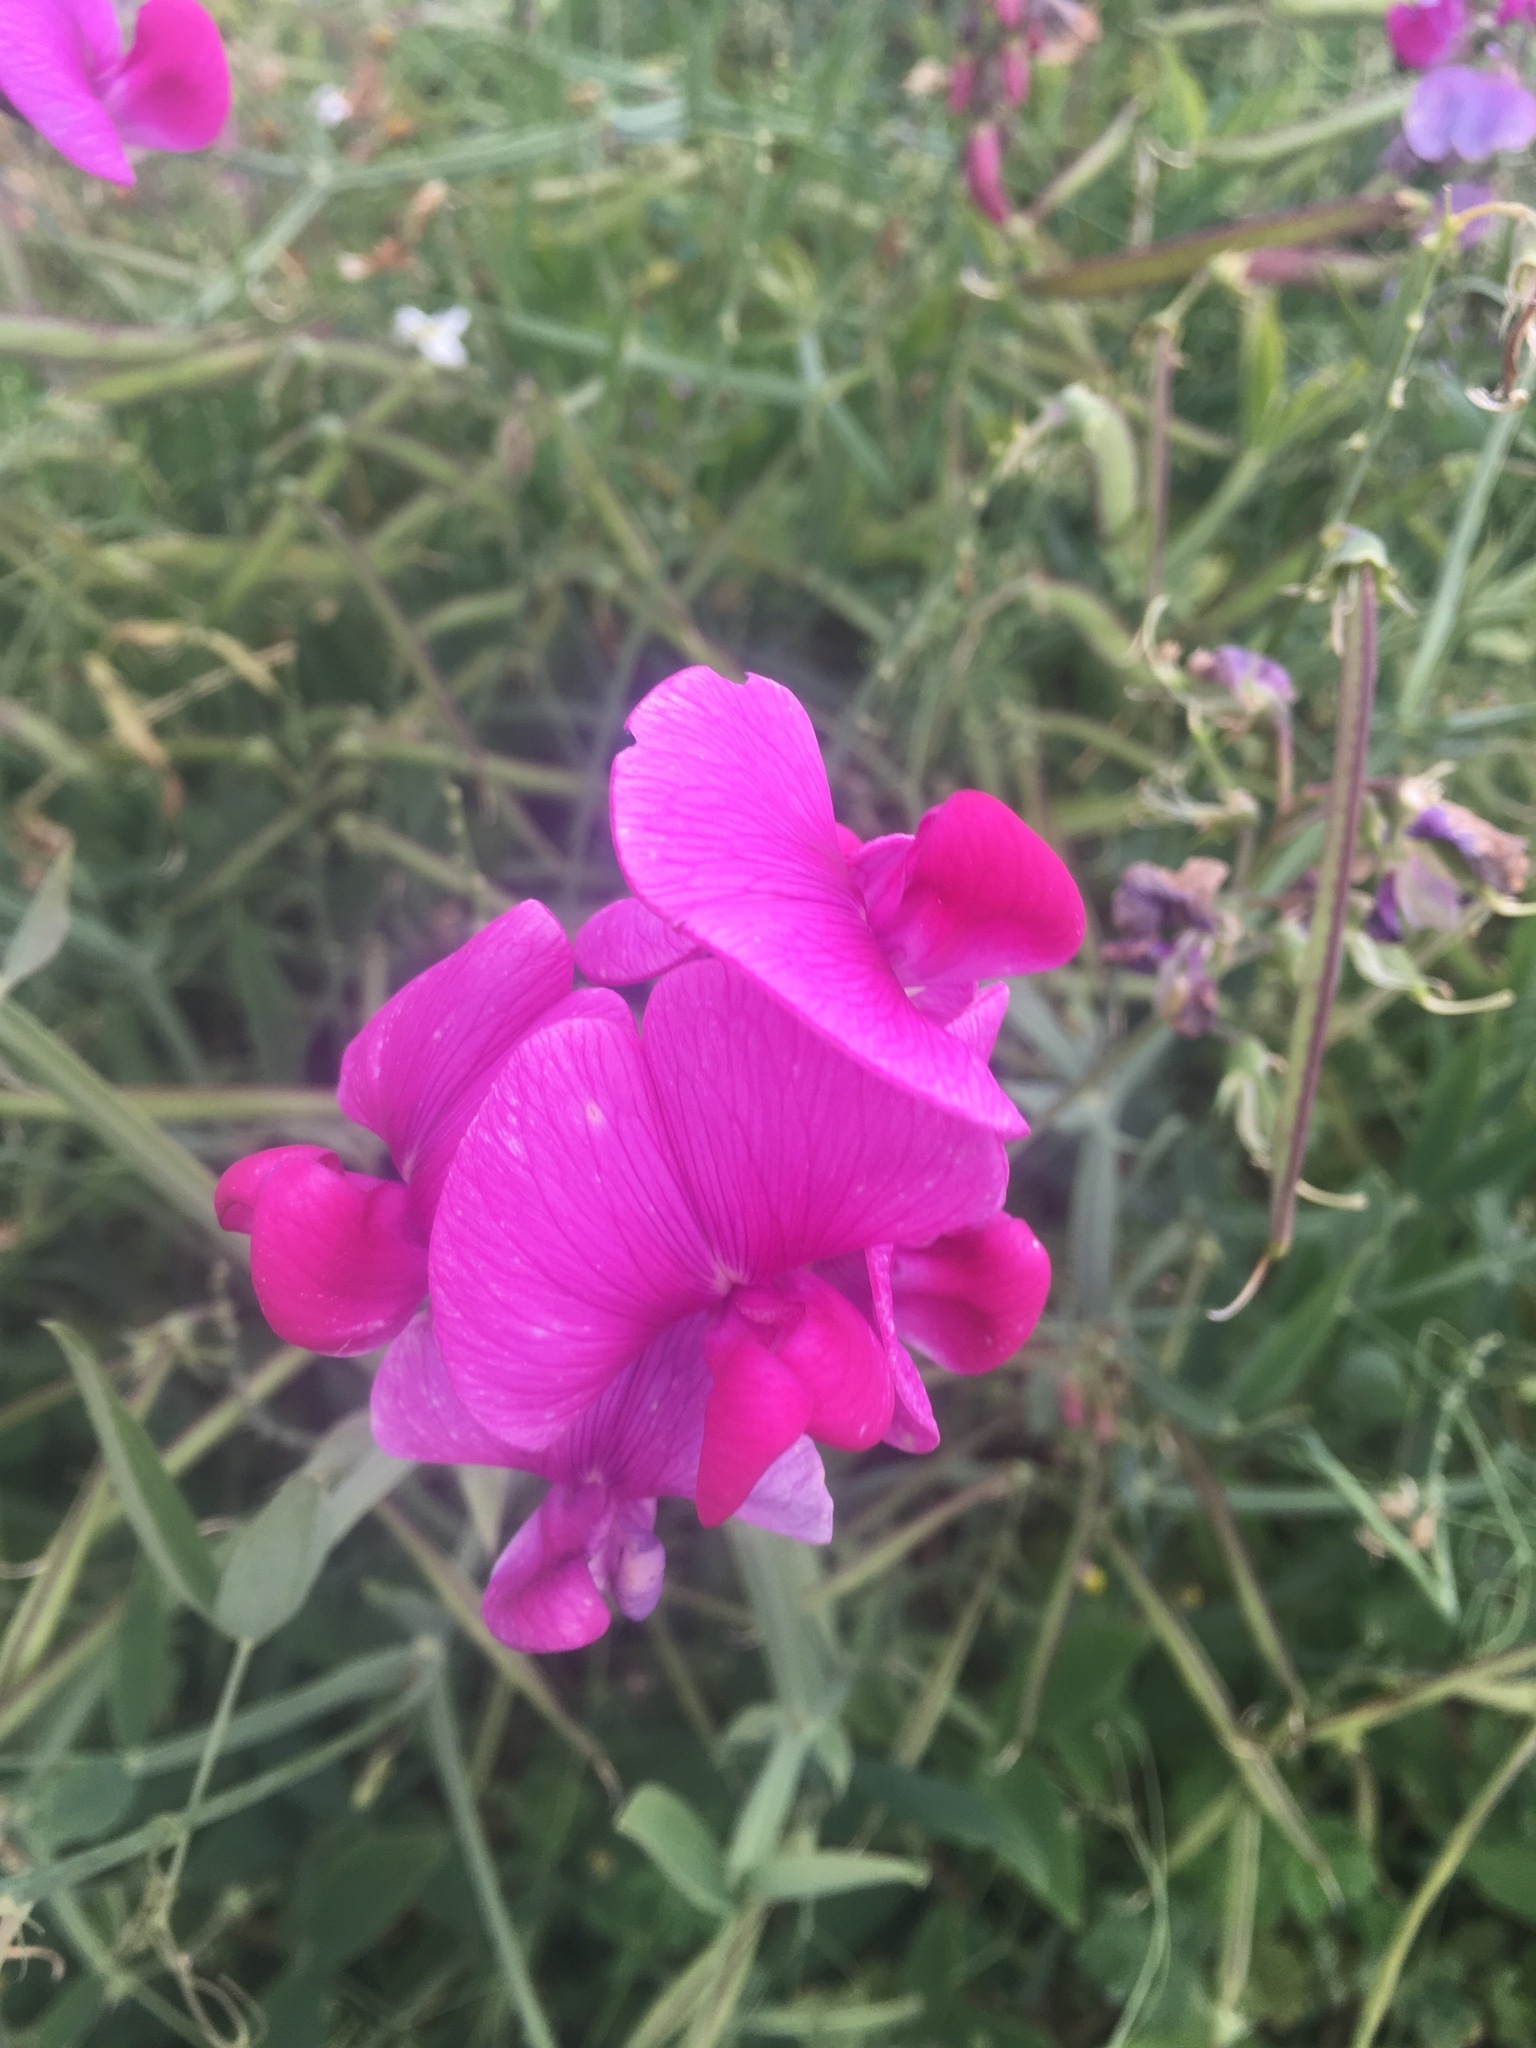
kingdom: Plantae
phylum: Tracheophyta
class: Magnoliopsida
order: Fabales
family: Fabaceae
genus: Lathyrus
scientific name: Lathyrus latifolius
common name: Perennial pea
